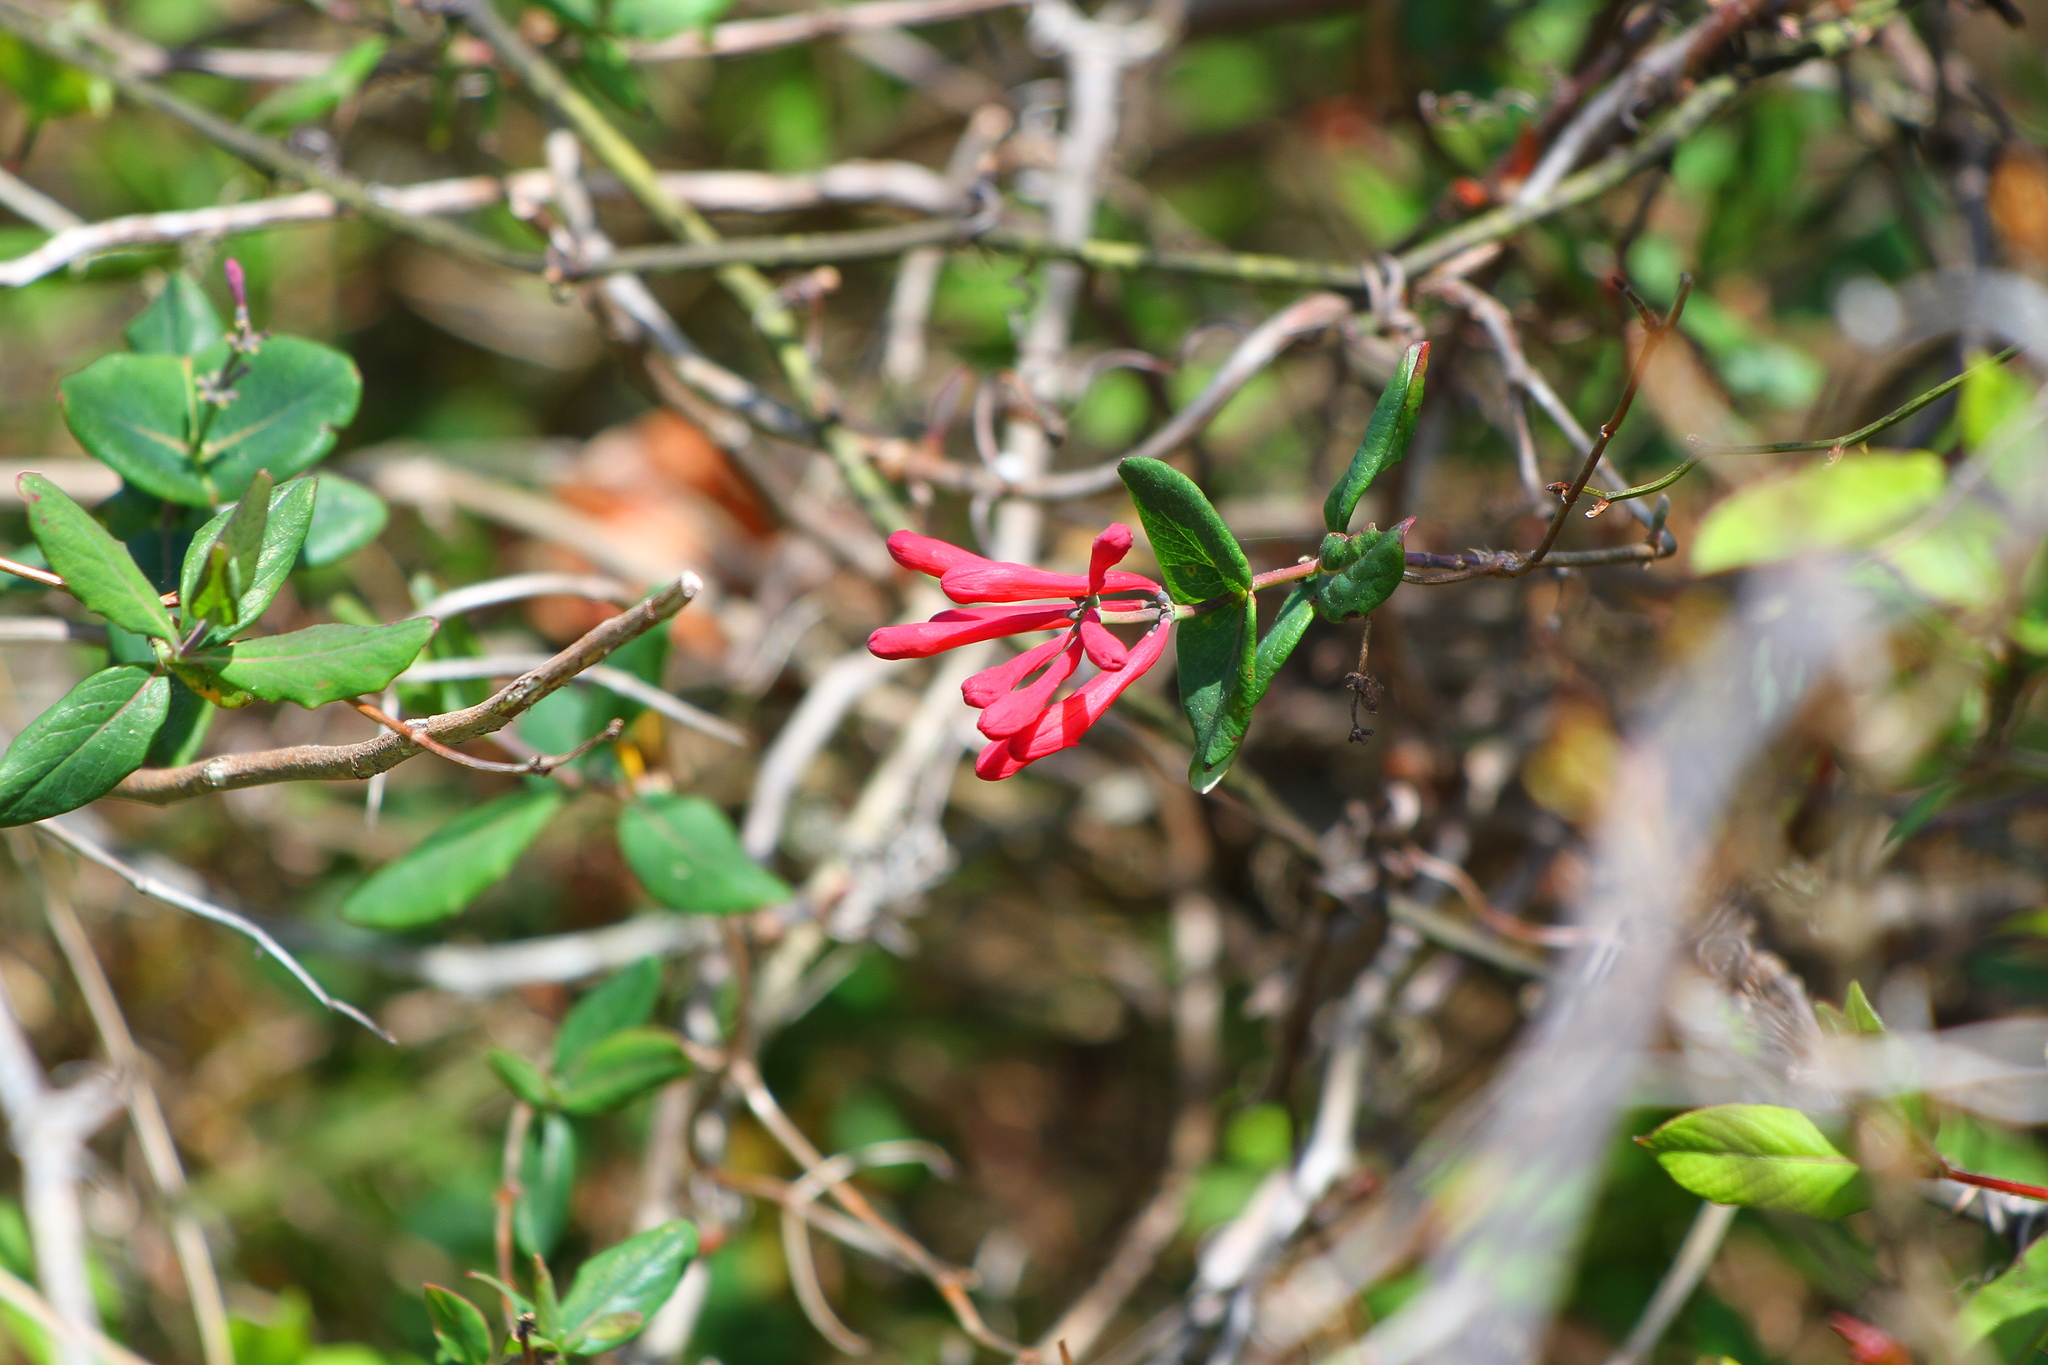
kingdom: Plantae
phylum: Tracheophyta
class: Magnoliopsida
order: Dipsacales
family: Caprifoliaceae
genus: Lonicera
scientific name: Lonicera sempervirens
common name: Coral honeysuckle
